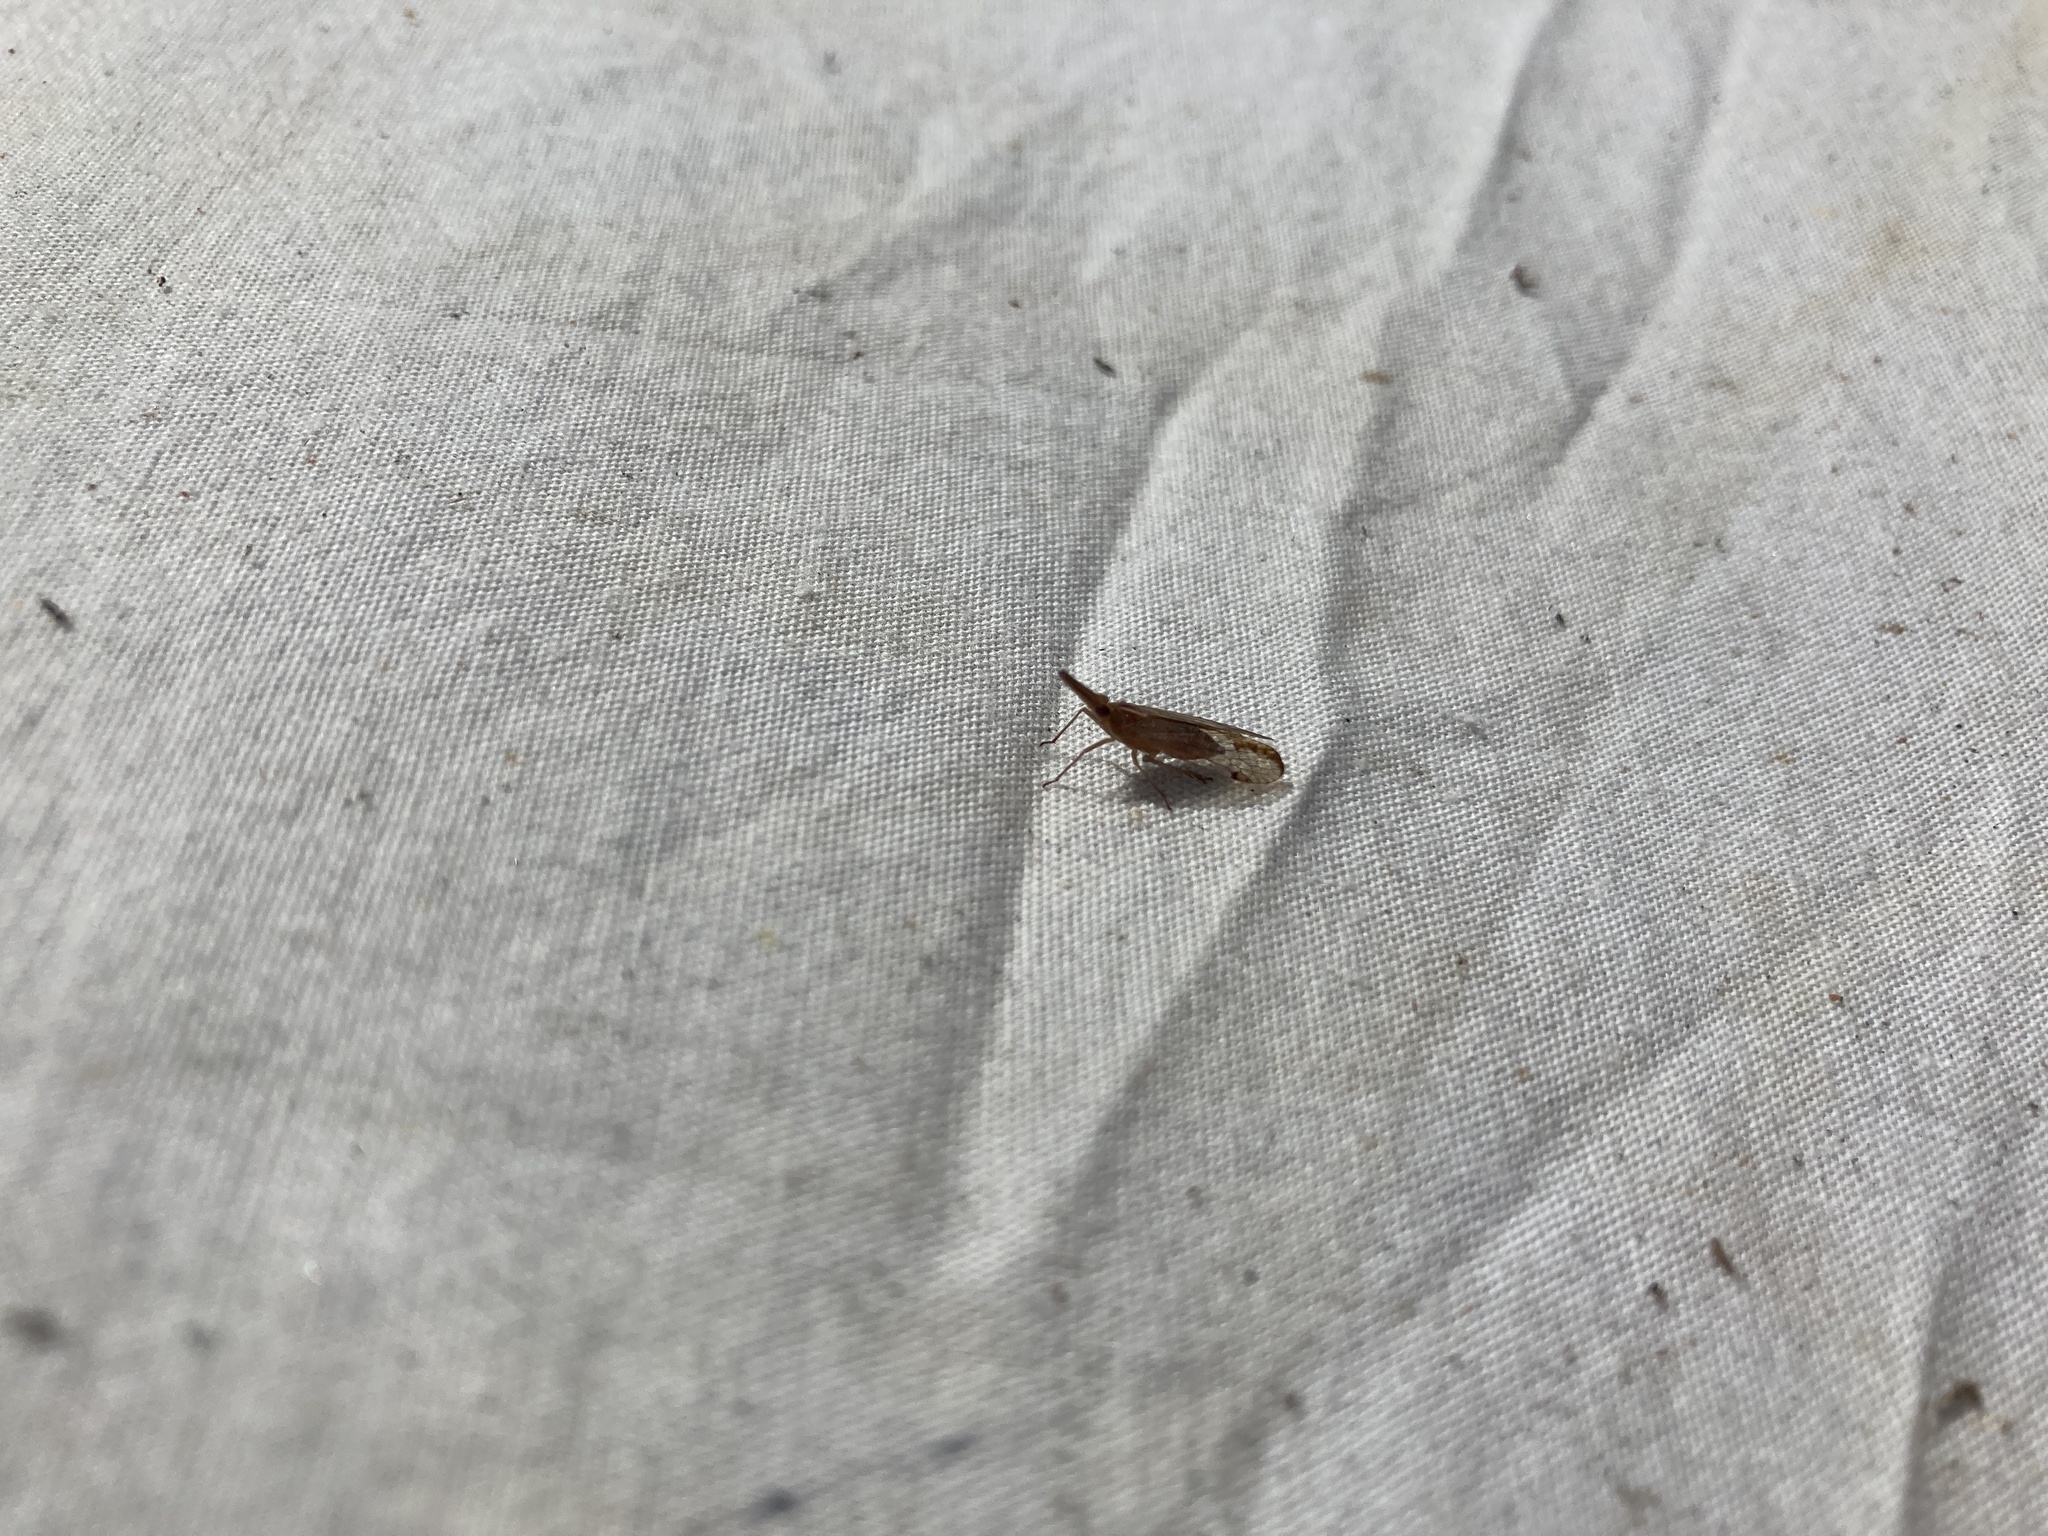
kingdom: Animalia
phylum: Arthropoda
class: Insecta
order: Hemiptera
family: Dictyopharidae
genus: Thanatodictya
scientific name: Thanatodictya tillyardi
